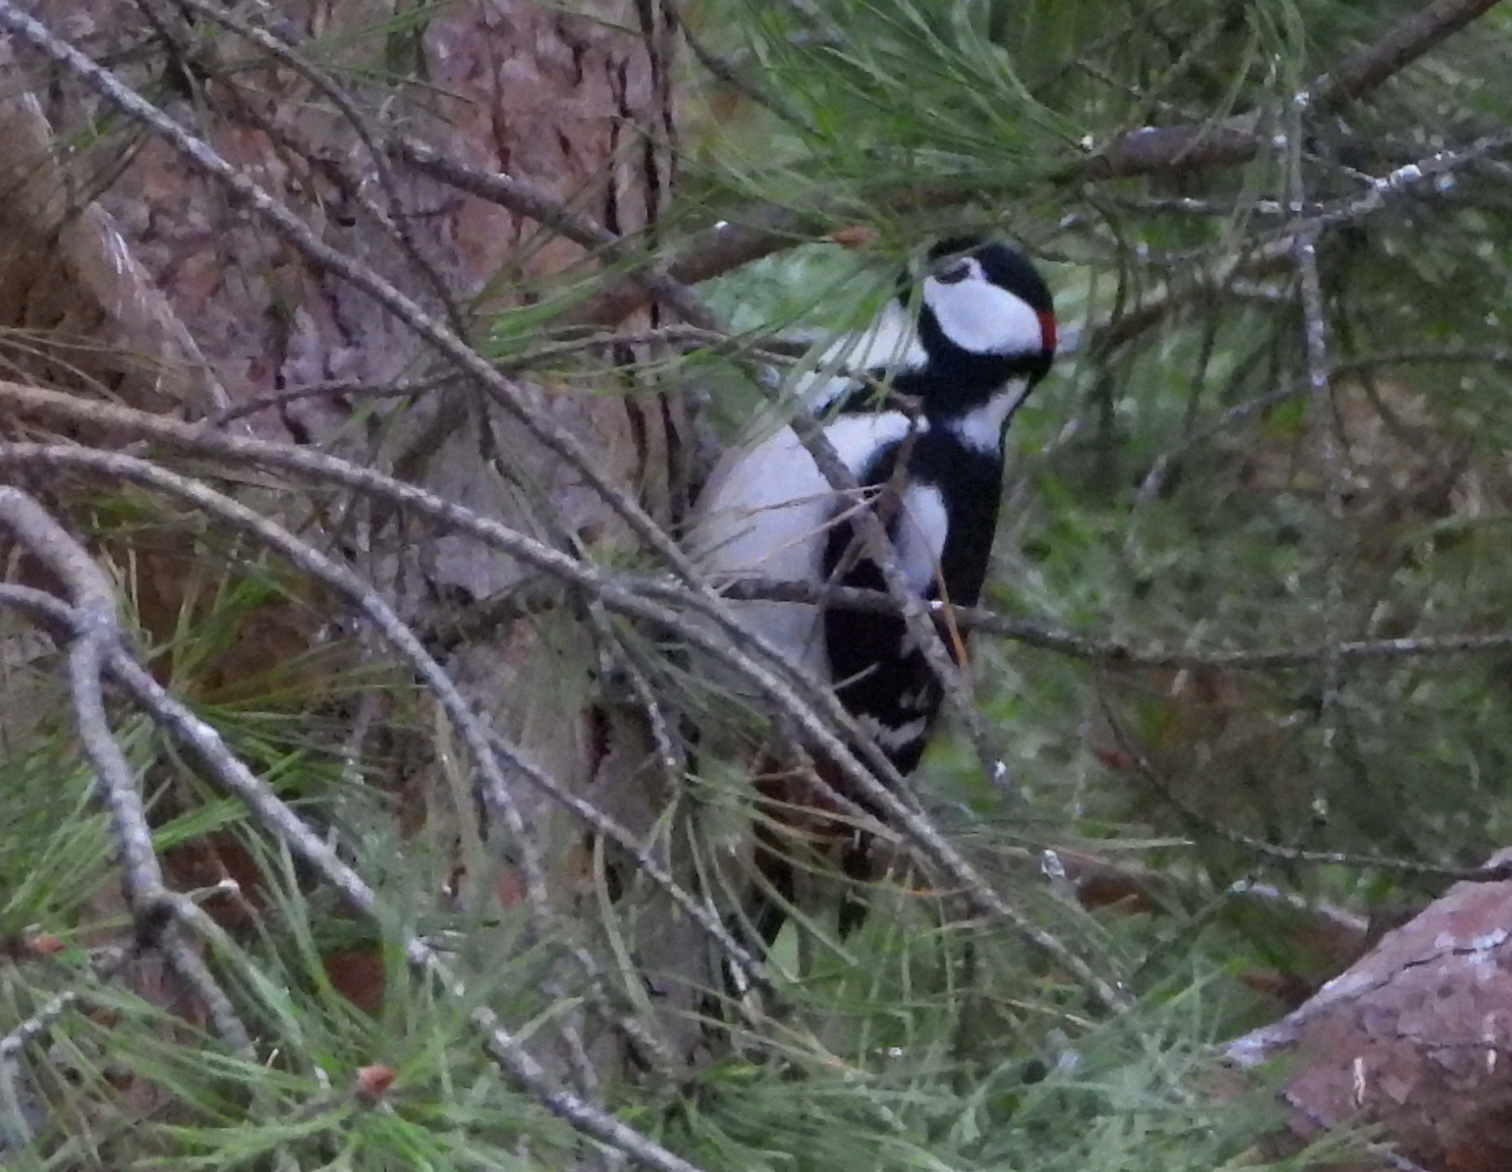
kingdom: Animalia
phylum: Chordata
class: Aves
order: Piciformes
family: Picidae
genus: Dendrocopos
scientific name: Dendrocopos major
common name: Great spotted woodpecker
